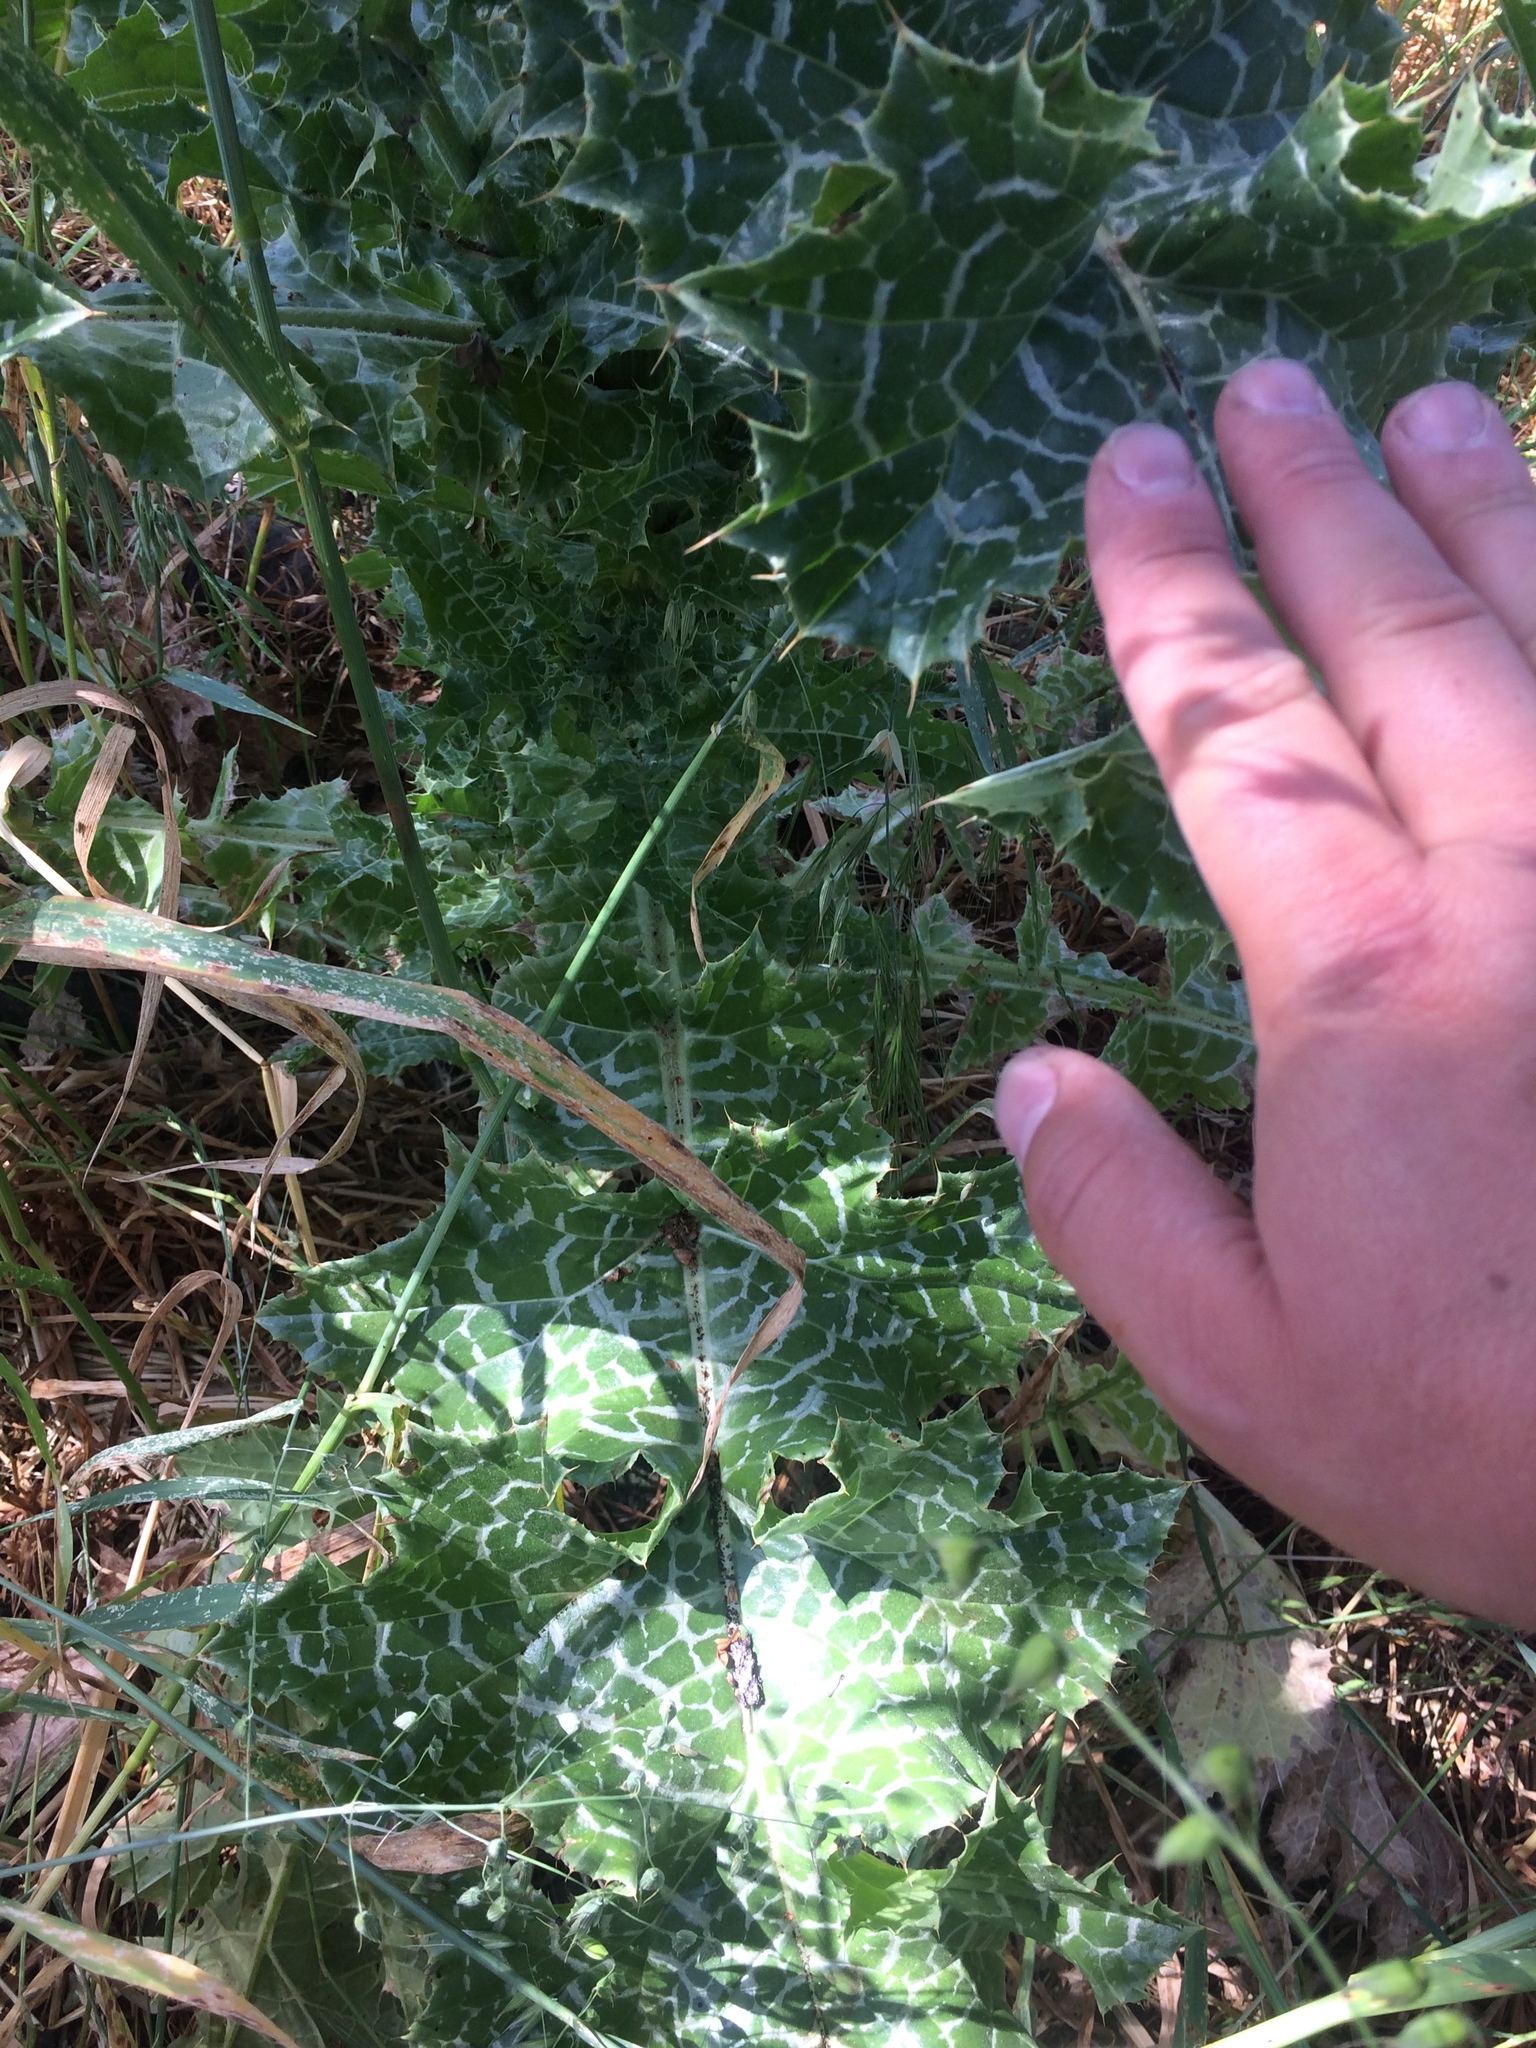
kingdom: Plantae
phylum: Tracheophyta
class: Magnoliopsida
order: Asterales
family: Asteraceae
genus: Silybum
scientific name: Silybum marianum
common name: Milk thistle
